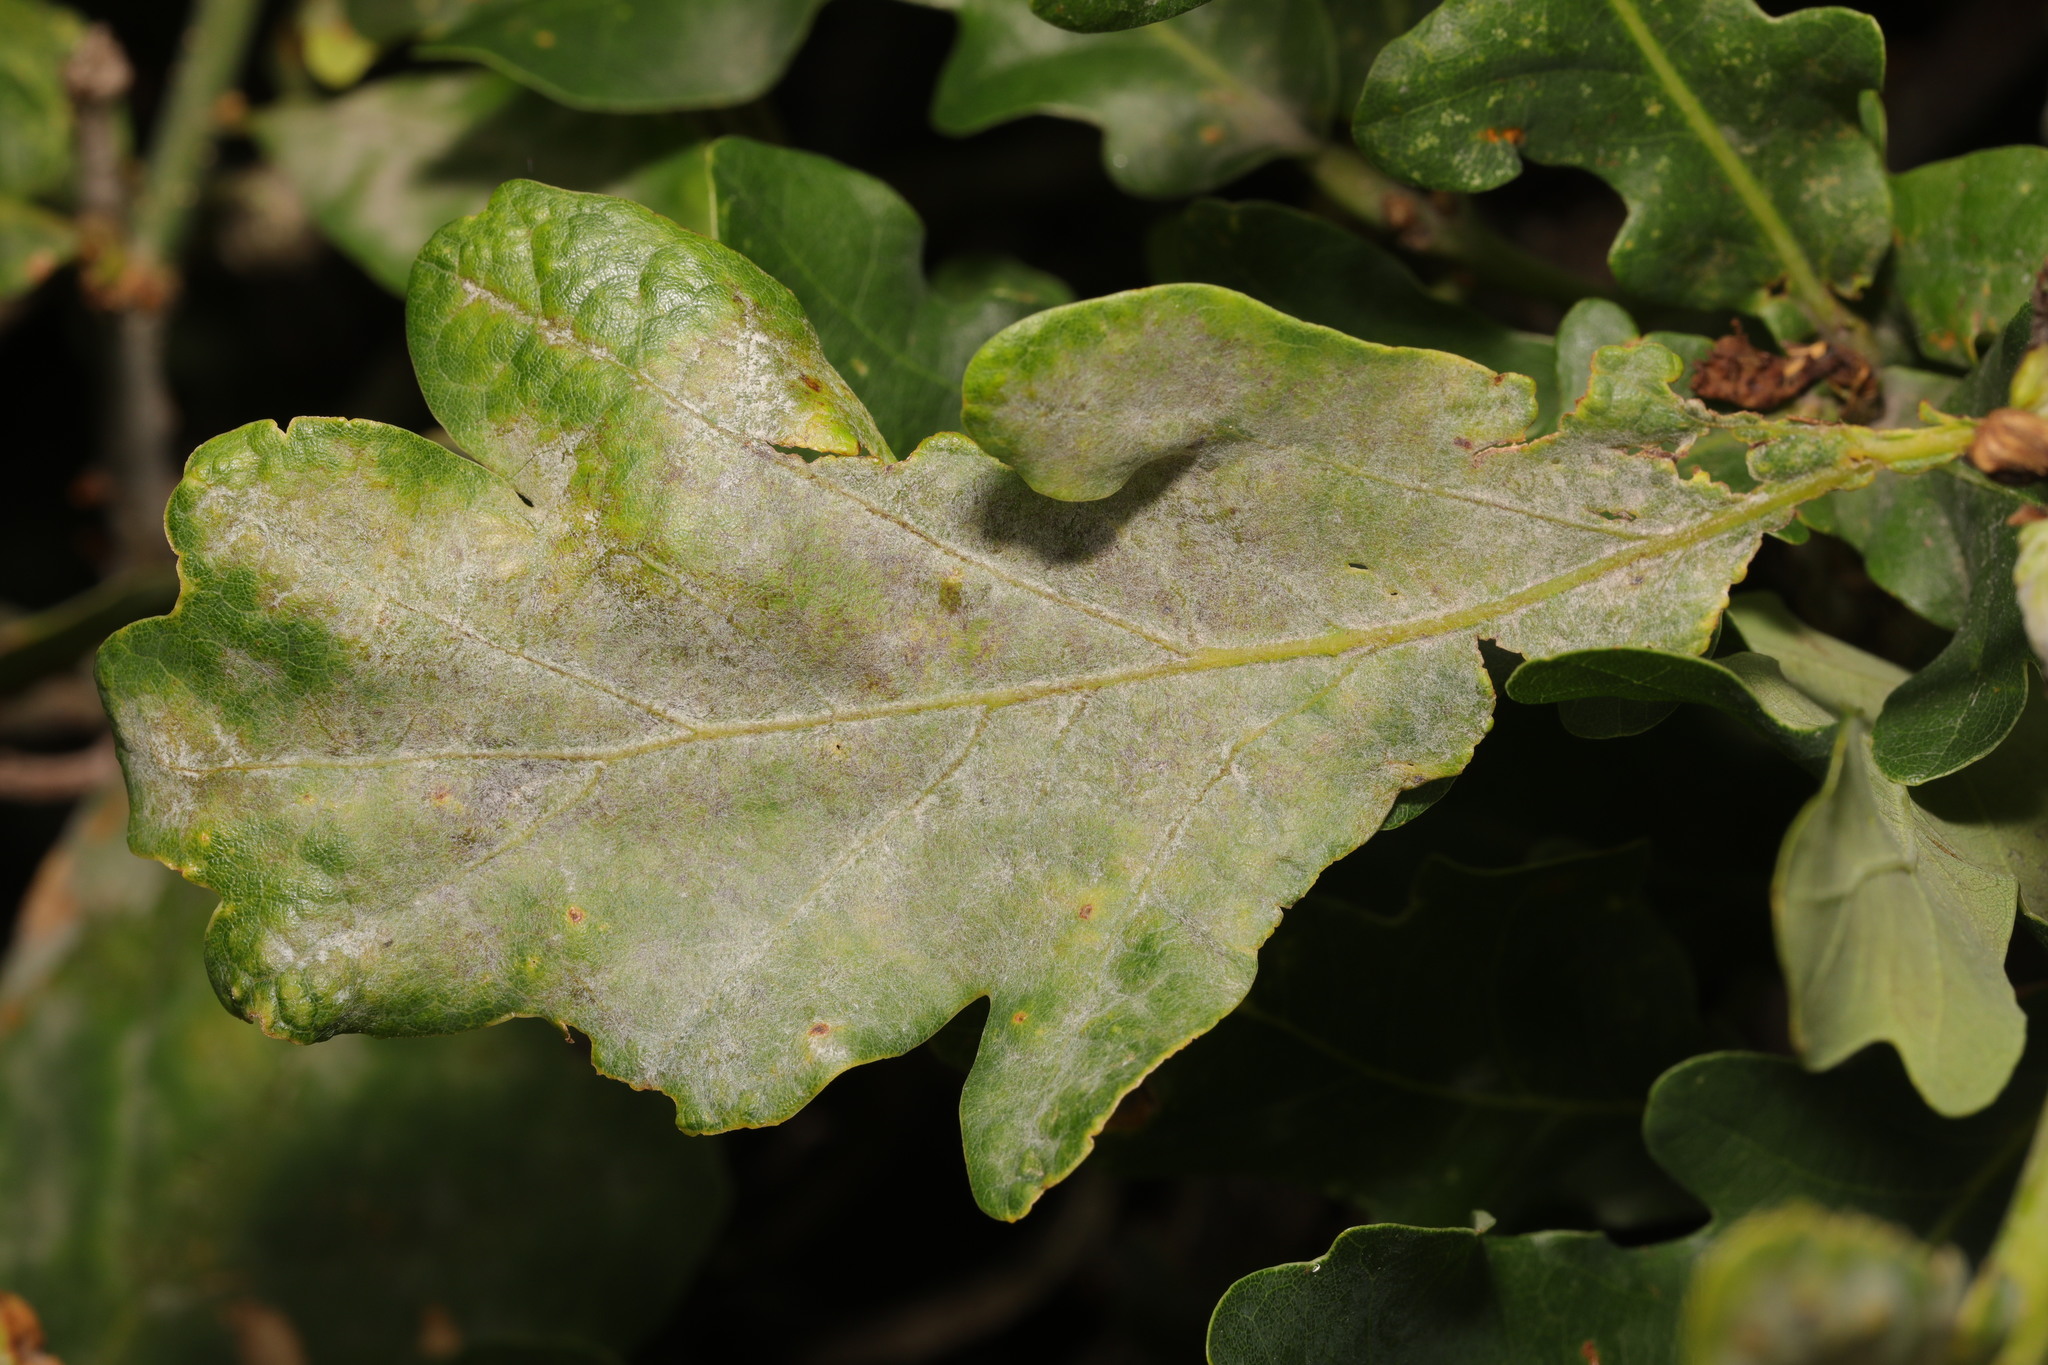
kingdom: Fungi
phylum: Ascomycota
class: Leotiomycetes
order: Helotiales
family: Erysiphaceae
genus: Erysiphe
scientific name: Erysiphe alphitoides
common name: Oak mildew
